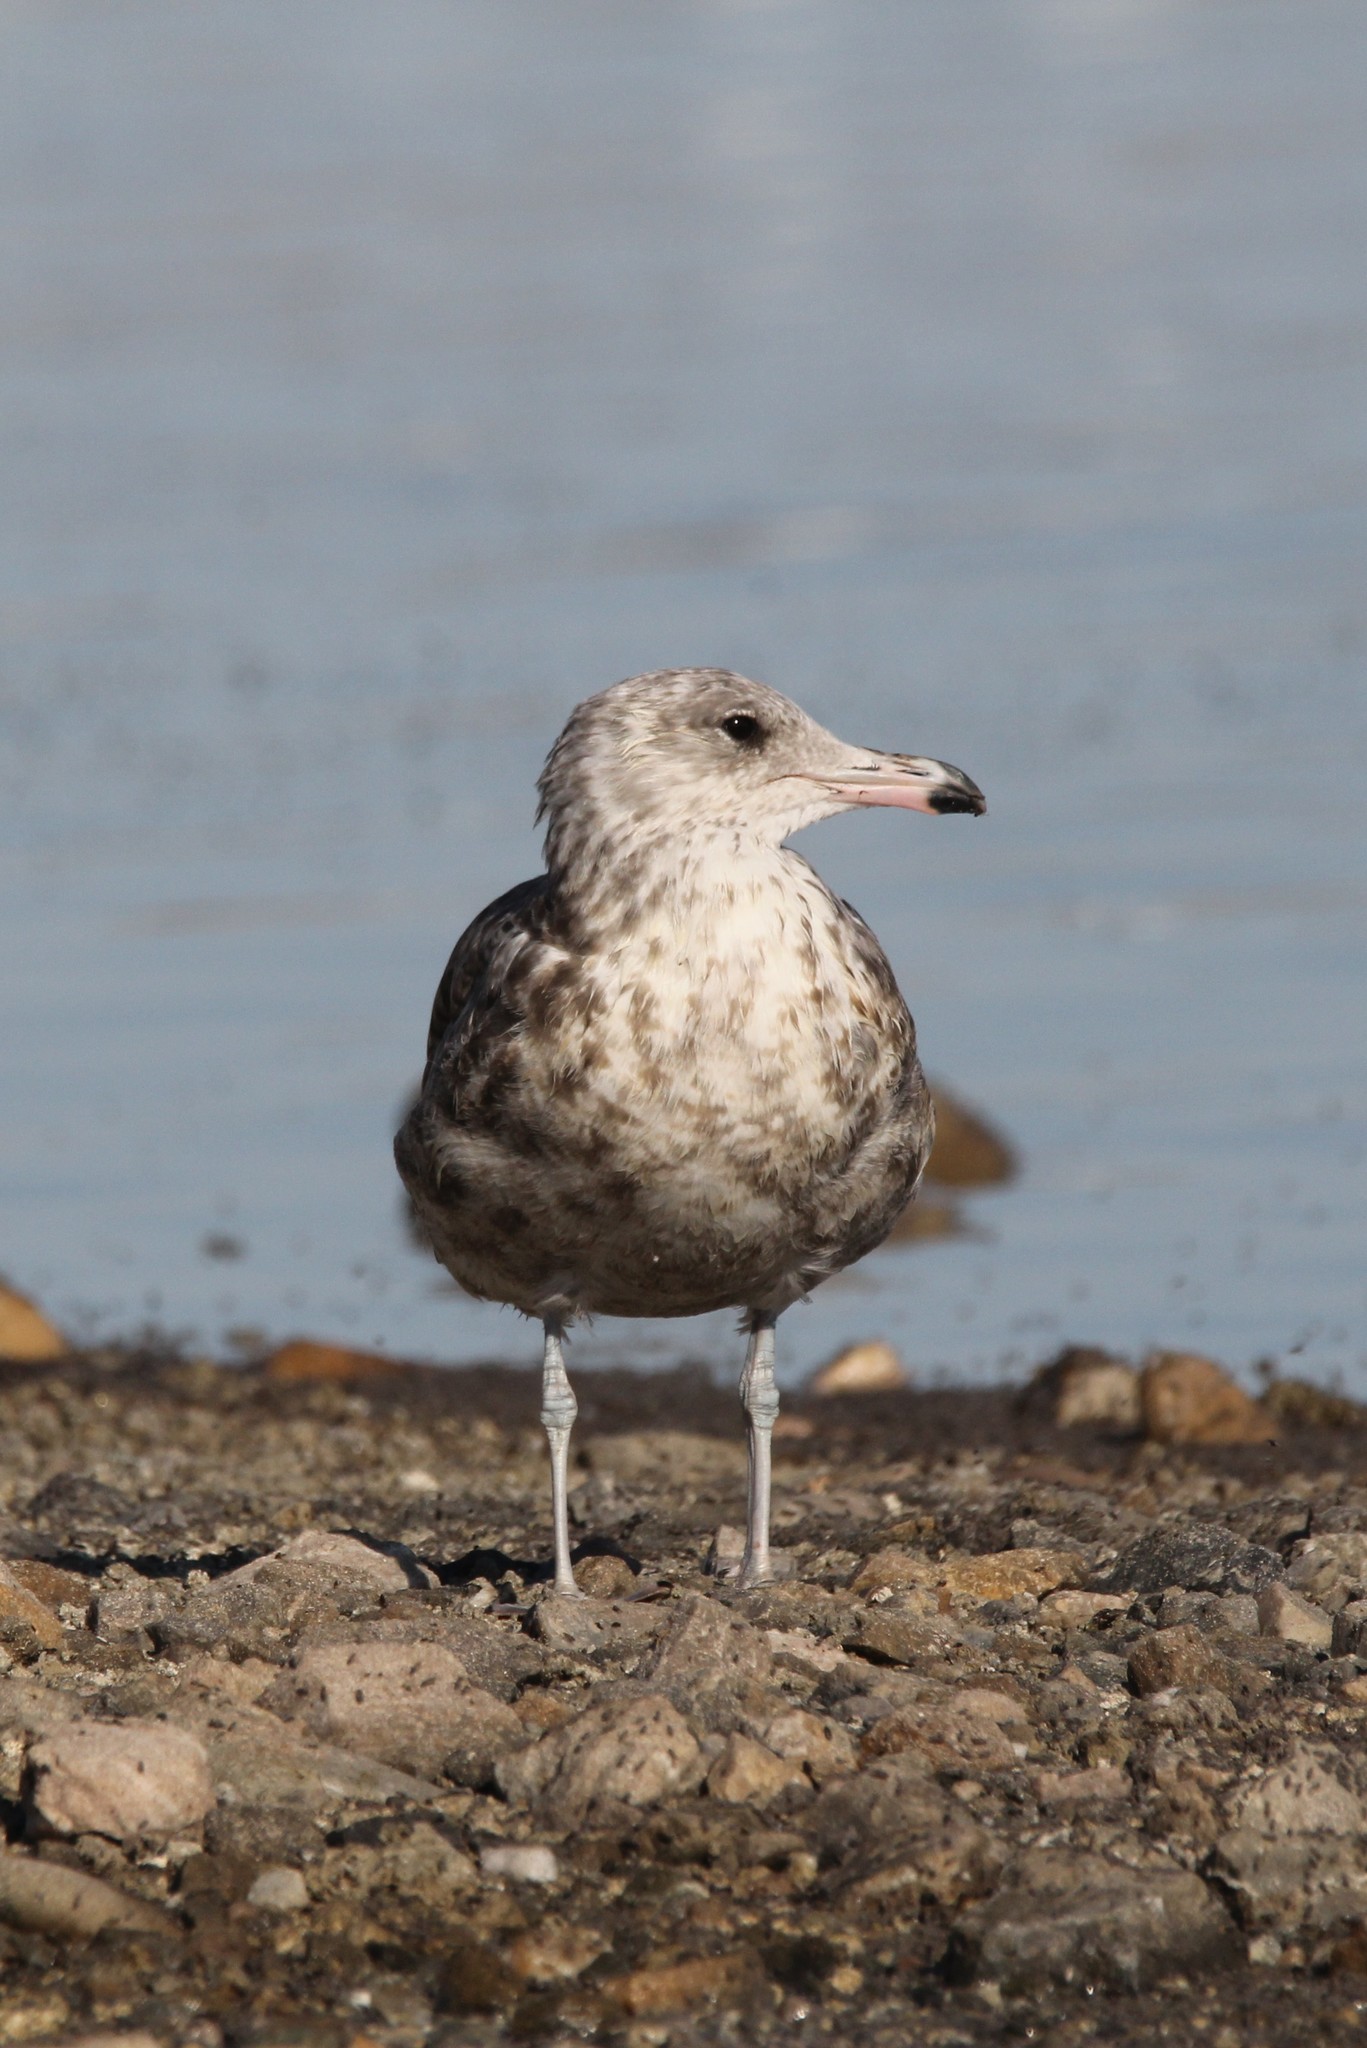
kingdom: Animalia
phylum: Chordata
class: Aves
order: Charadriiformes
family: Laridae
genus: Larus
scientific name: Larus californicus
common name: California gull
